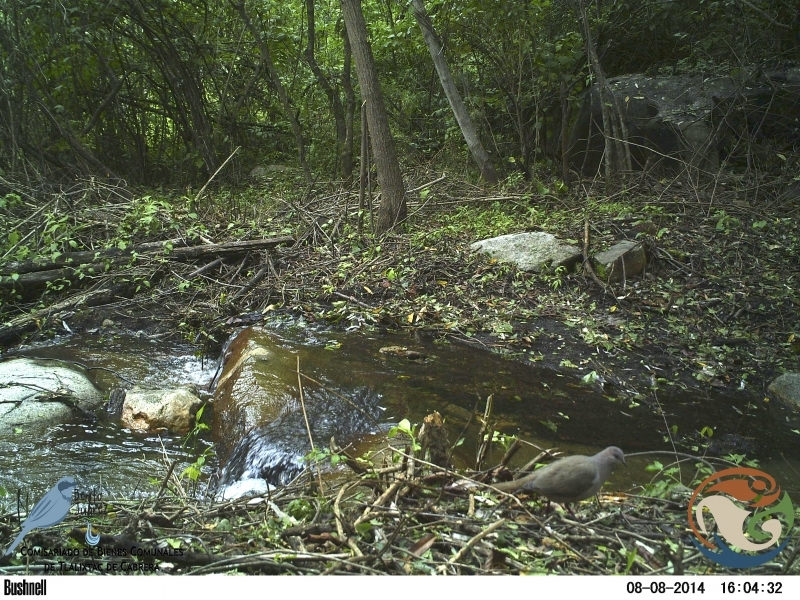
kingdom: Animalia
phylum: Chordata
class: Aves
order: Columbiformes
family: Columbidae
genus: Leptotila
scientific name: Leptotila verreauxi
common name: White-tipped dove
